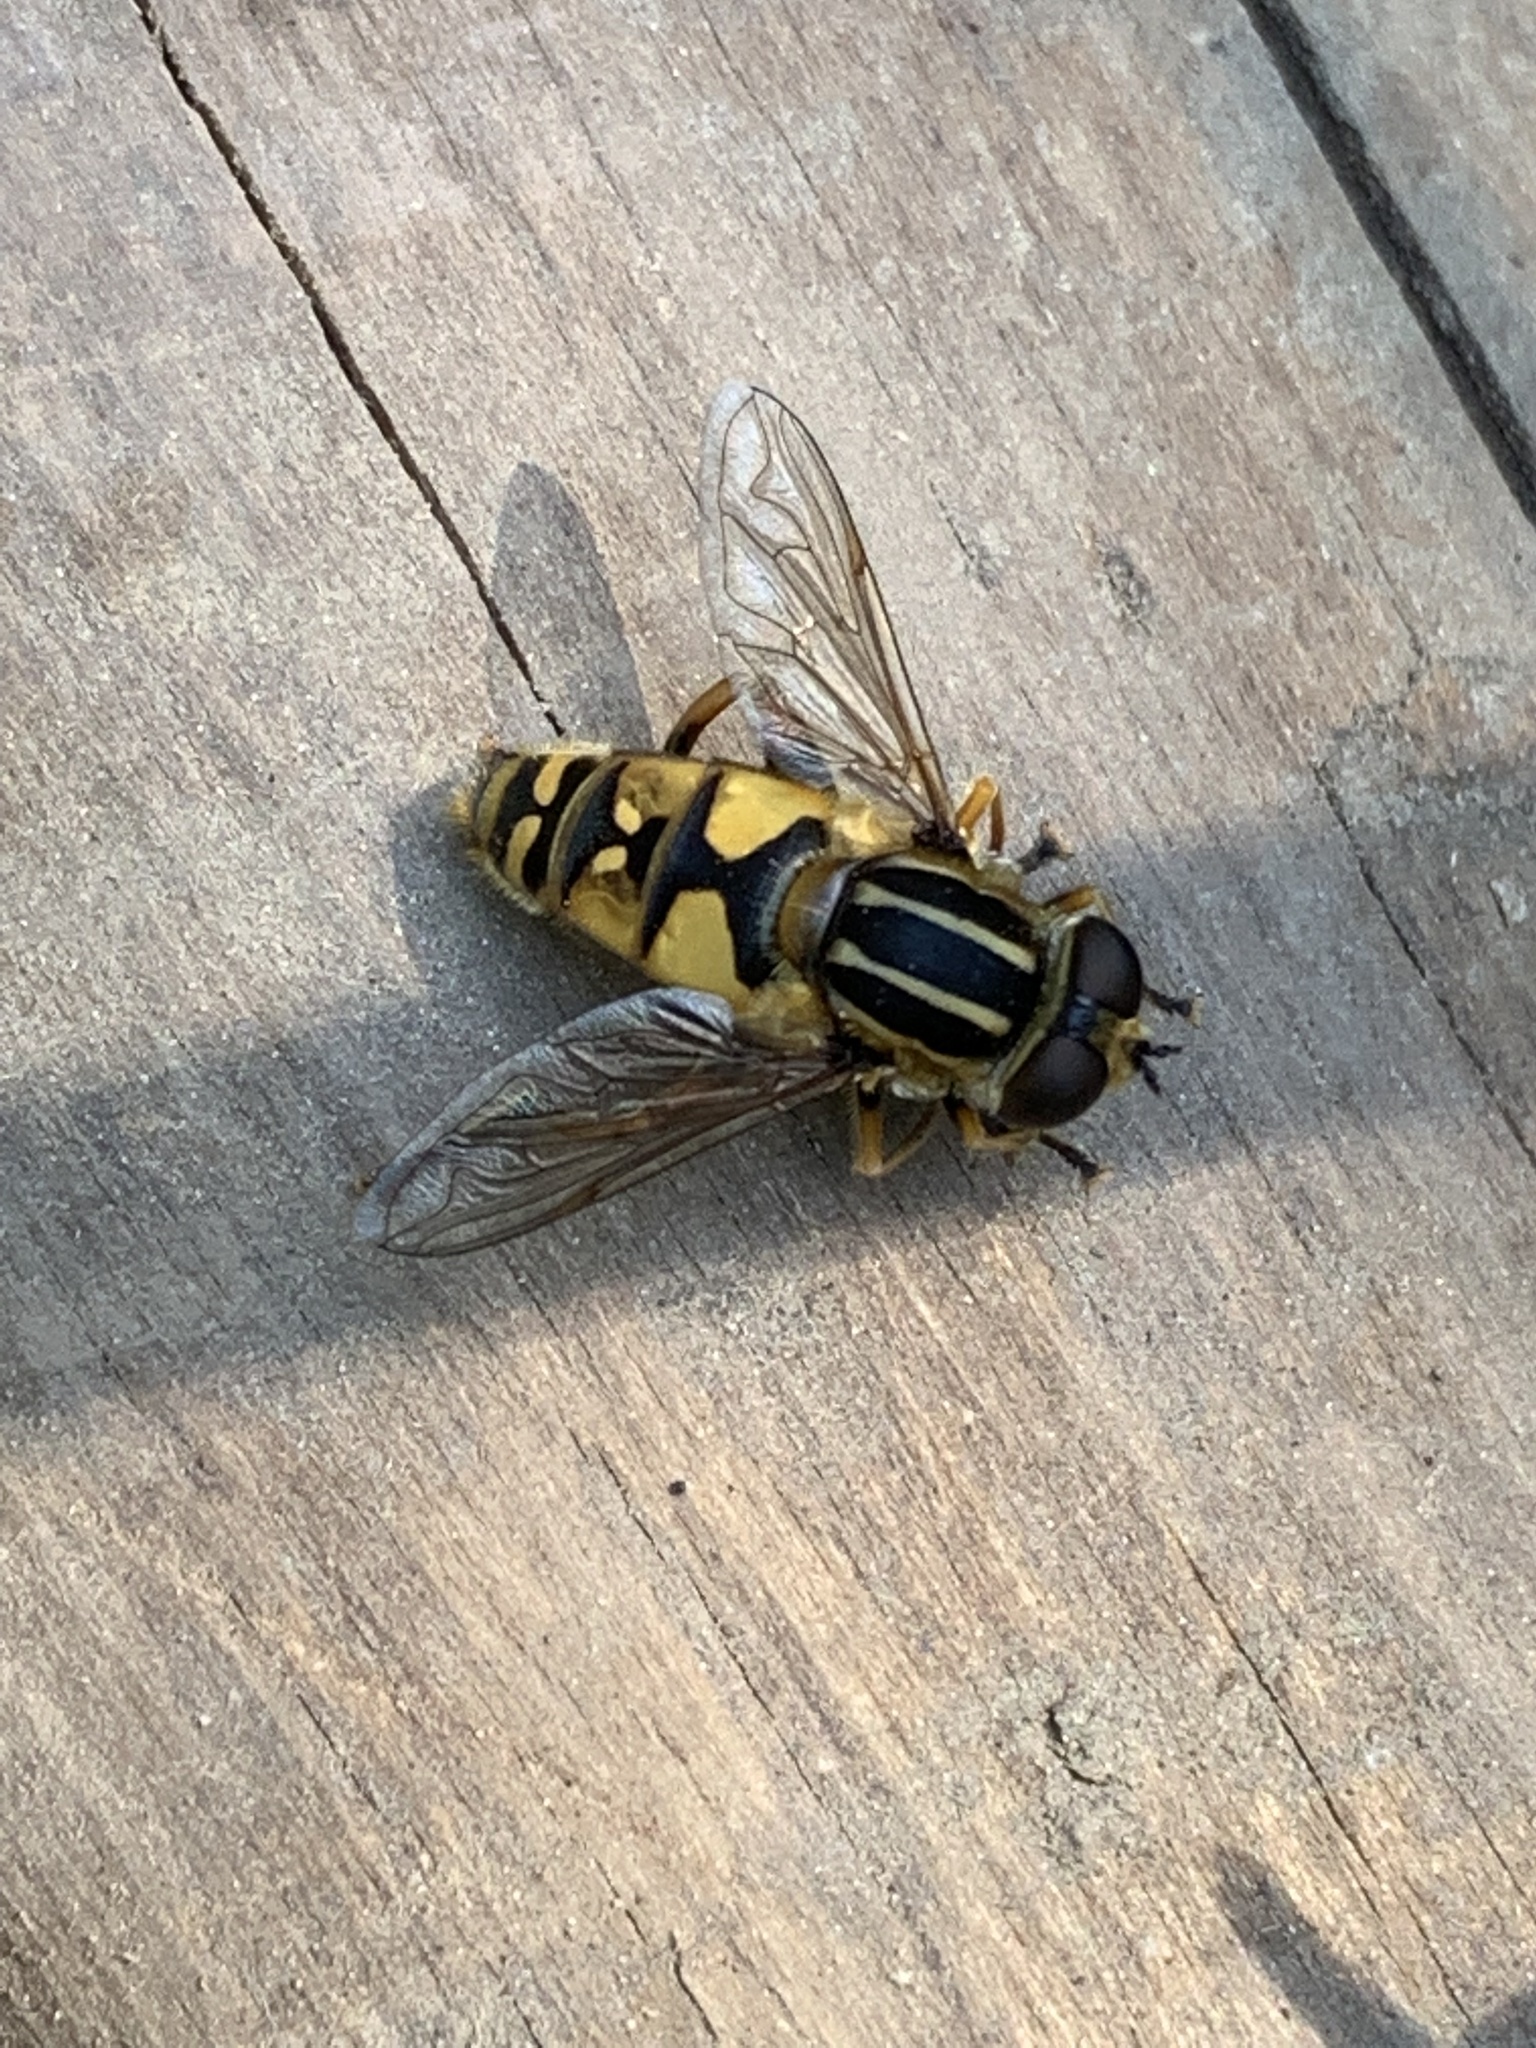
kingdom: Animalia
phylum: Arthropoda
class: Insecta
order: Diptera
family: Syrphidae
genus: Helophilus
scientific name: Helophilus pendulus
